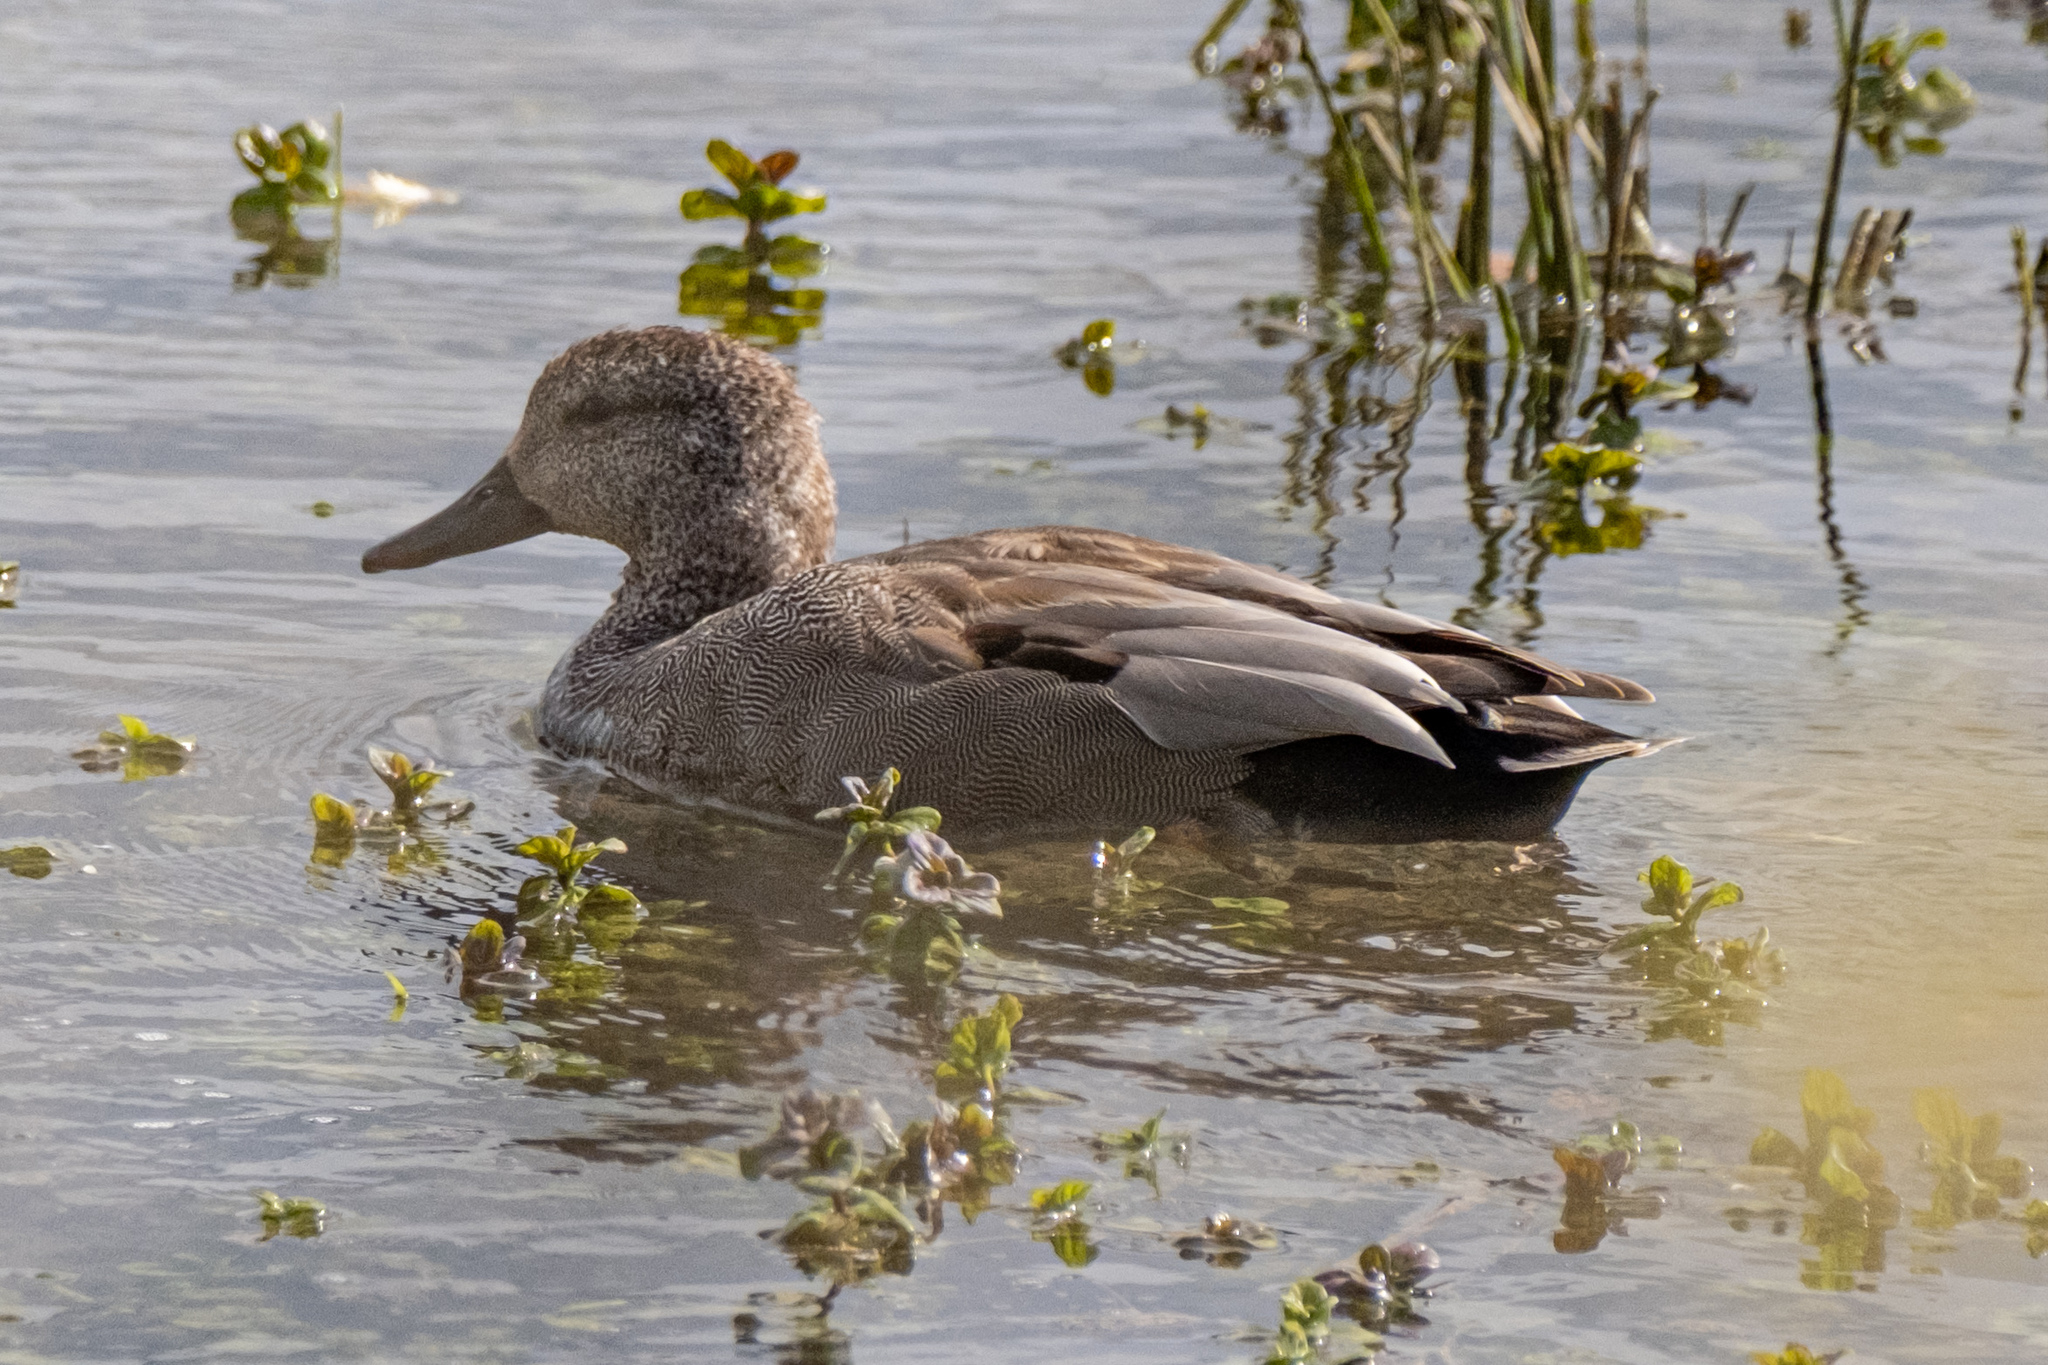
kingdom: Animalia
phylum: Chordata
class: Aves
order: Anseriformes
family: Anatidae
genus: Mareca
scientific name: Mareca strepera
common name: Gadwall
